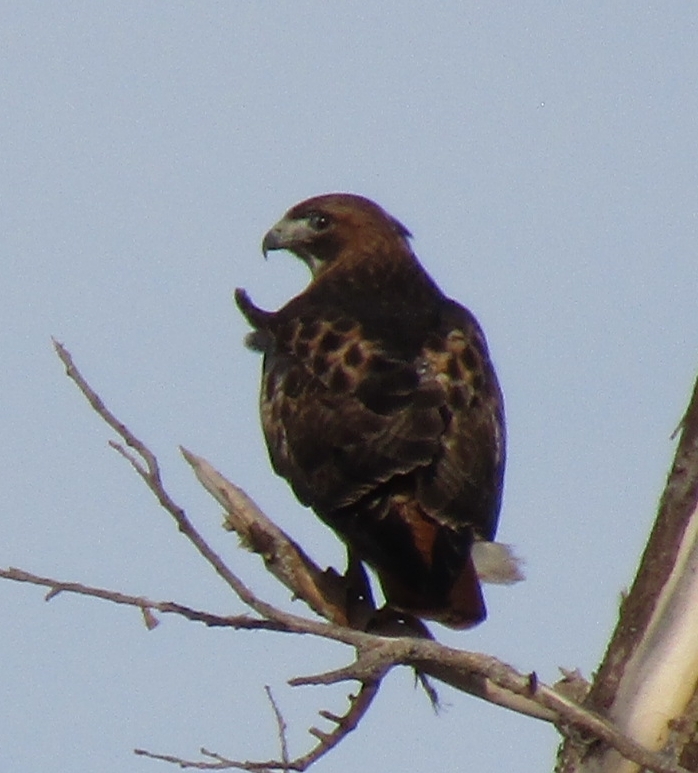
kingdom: Animalia
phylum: Chordata
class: Aves
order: Accipitriformes
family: Accipitridae
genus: Buteo
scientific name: Buteo jamaicensis
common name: Red-tailed hawk
